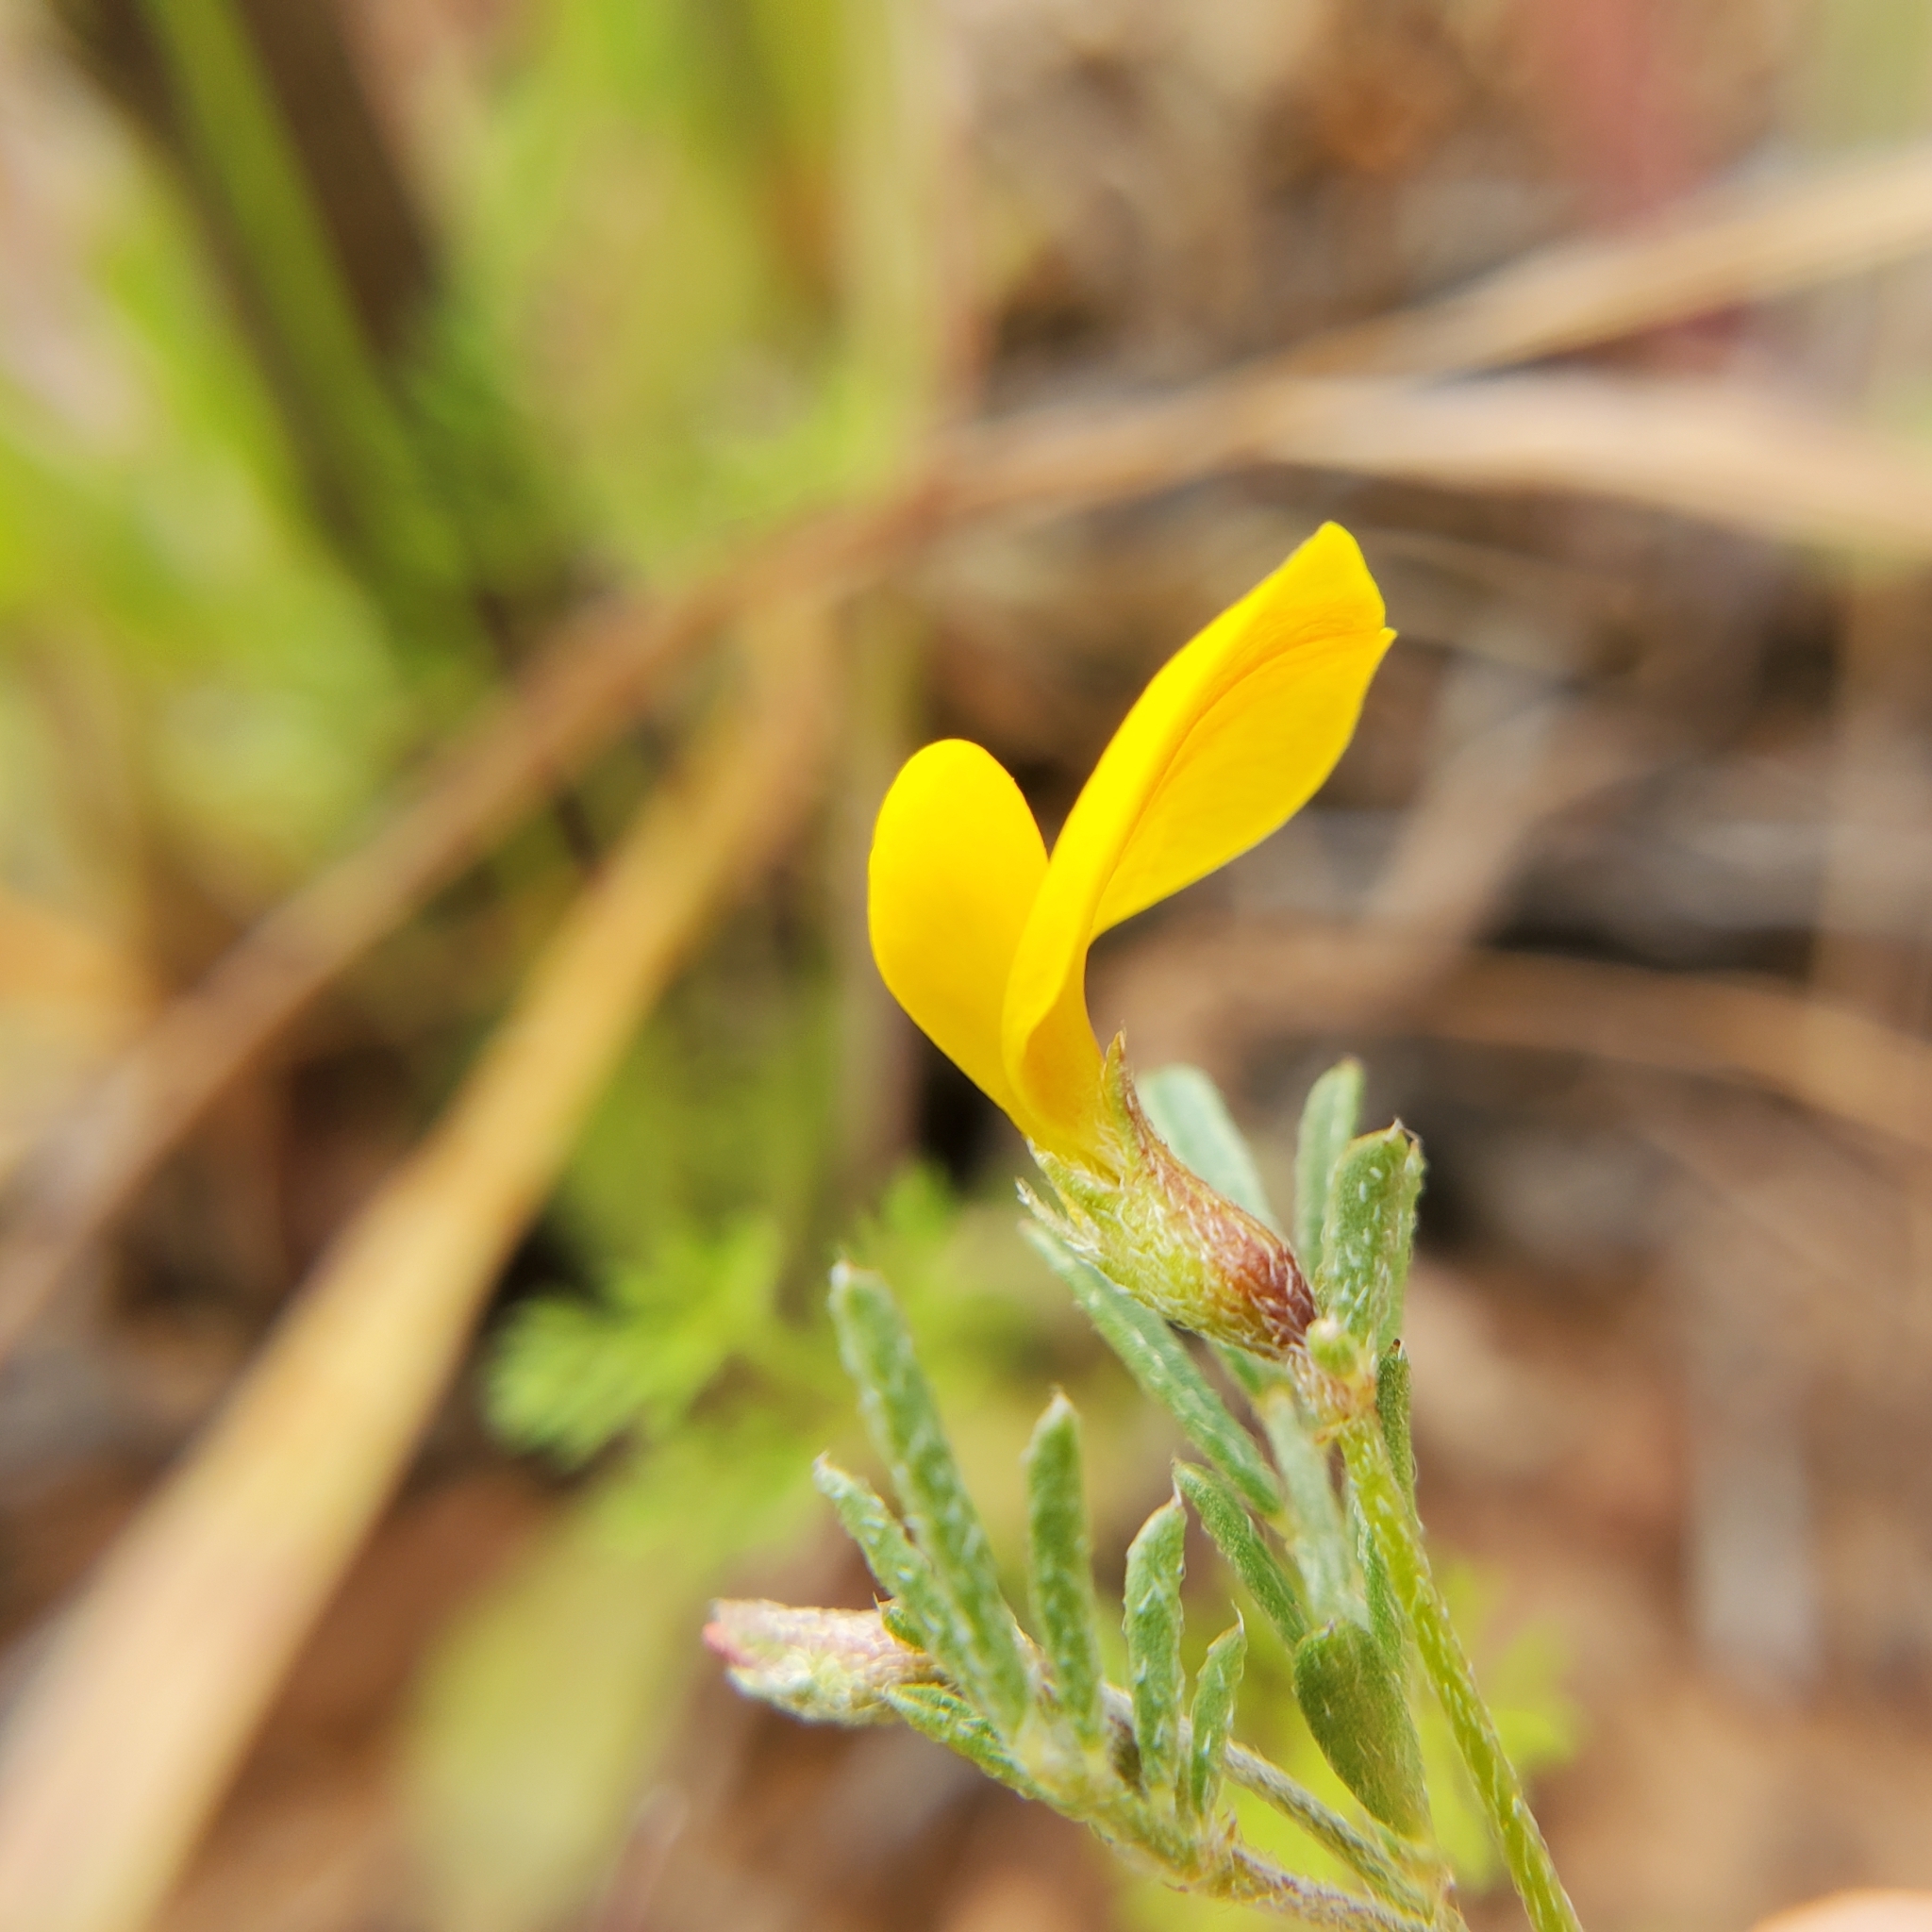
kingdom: Plantae
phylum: Tracheophyta
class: Magnoliopsida
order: Fabales
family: Fabaceae
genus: Acmispon
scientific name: Acmispon strigosus
